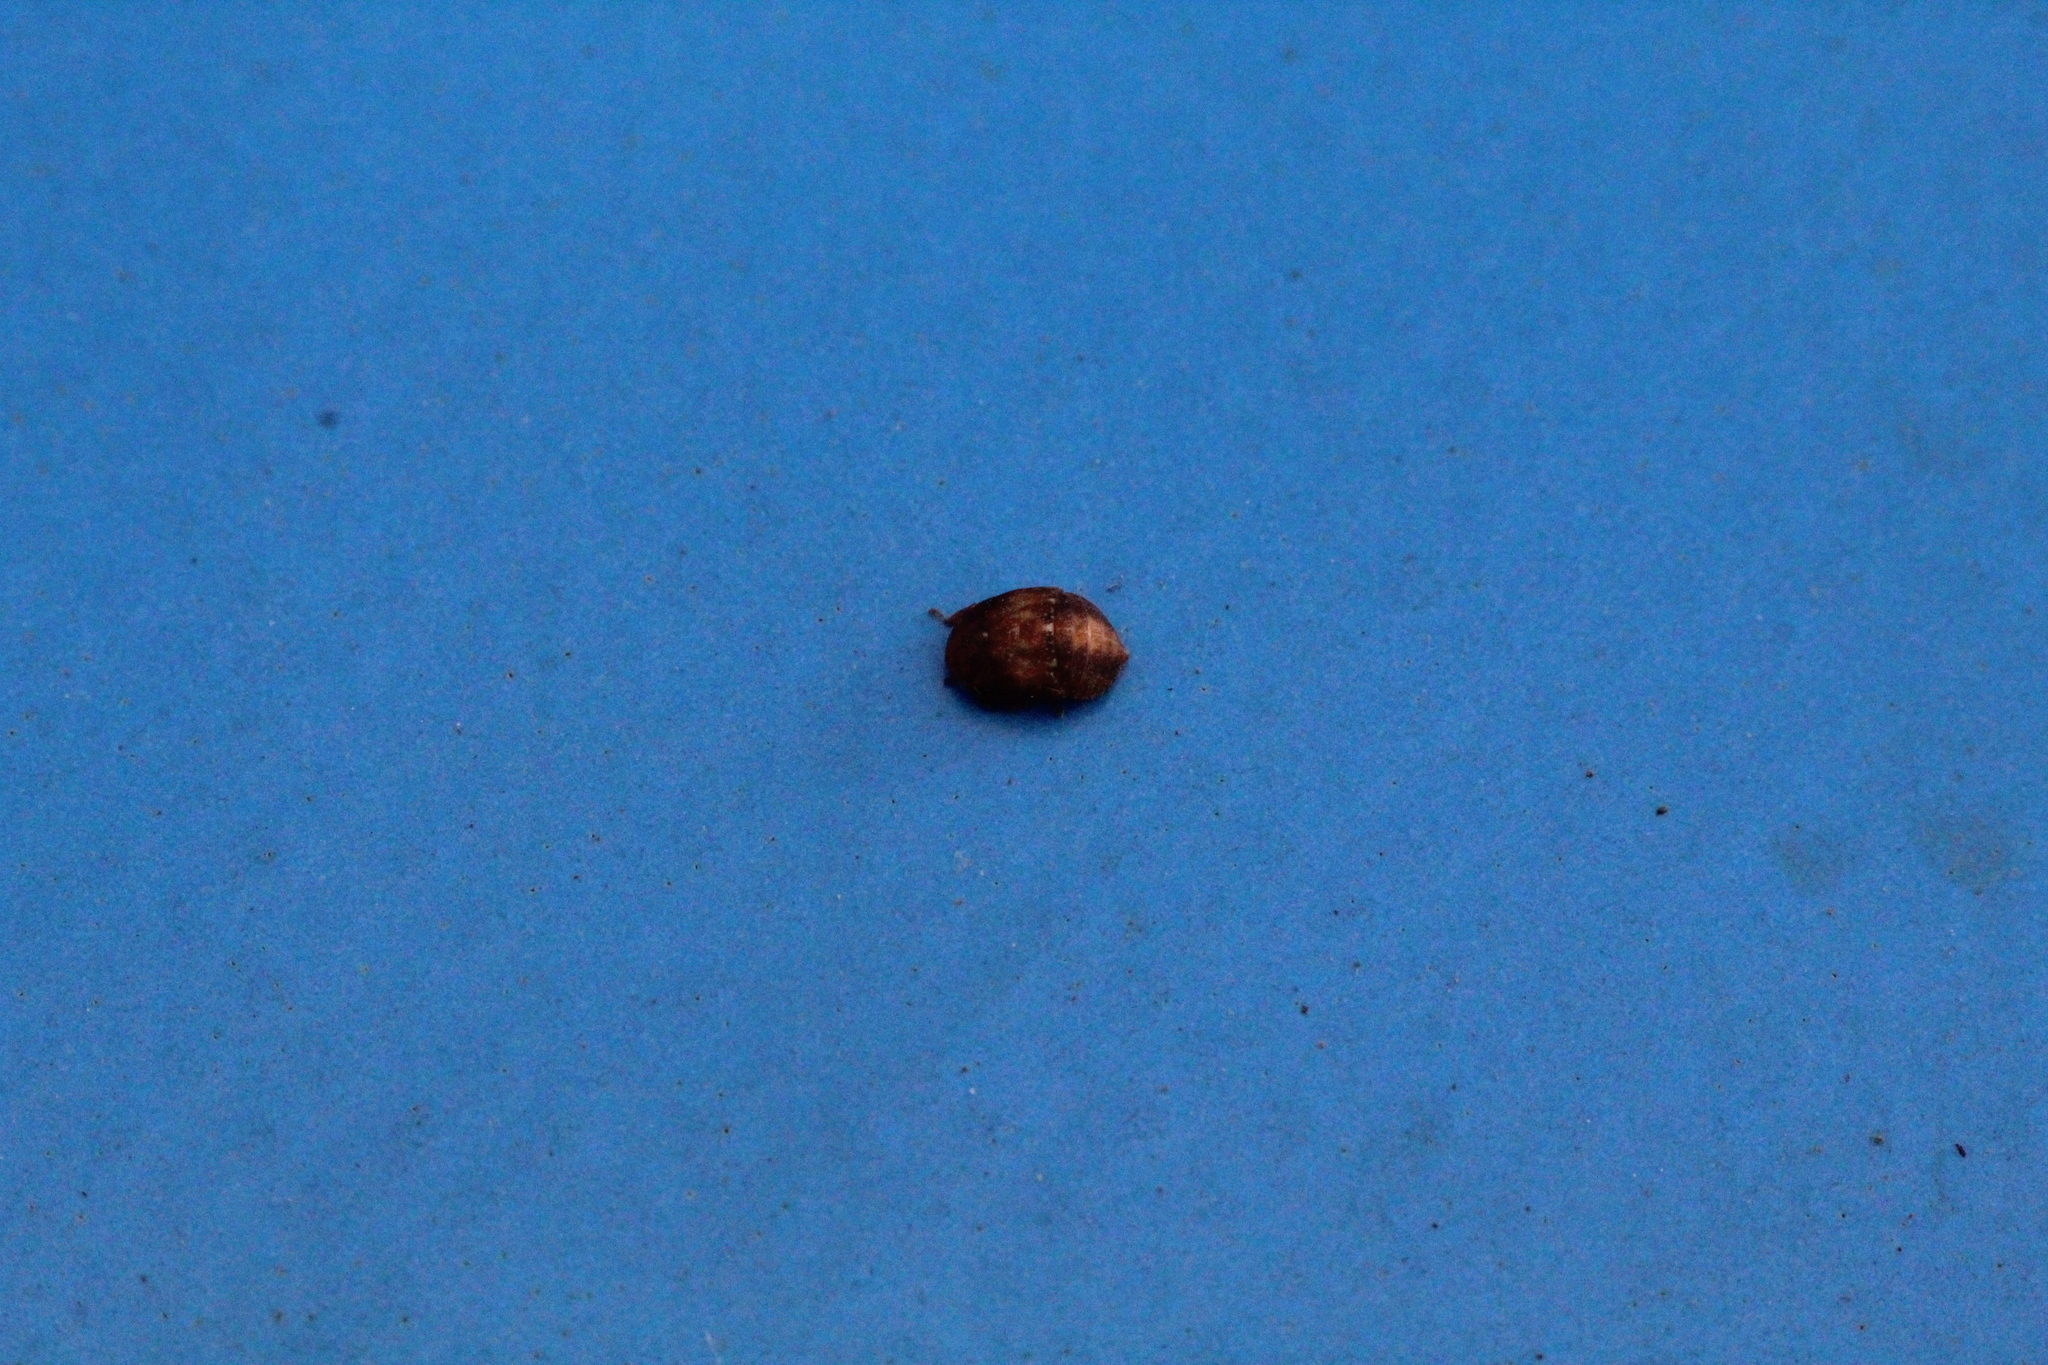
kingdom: Animalia
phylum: Arthropoda
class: Insecta
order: Hemiptera
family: Cicadellidae
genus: Penthimia
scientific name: Penthimia nigra
